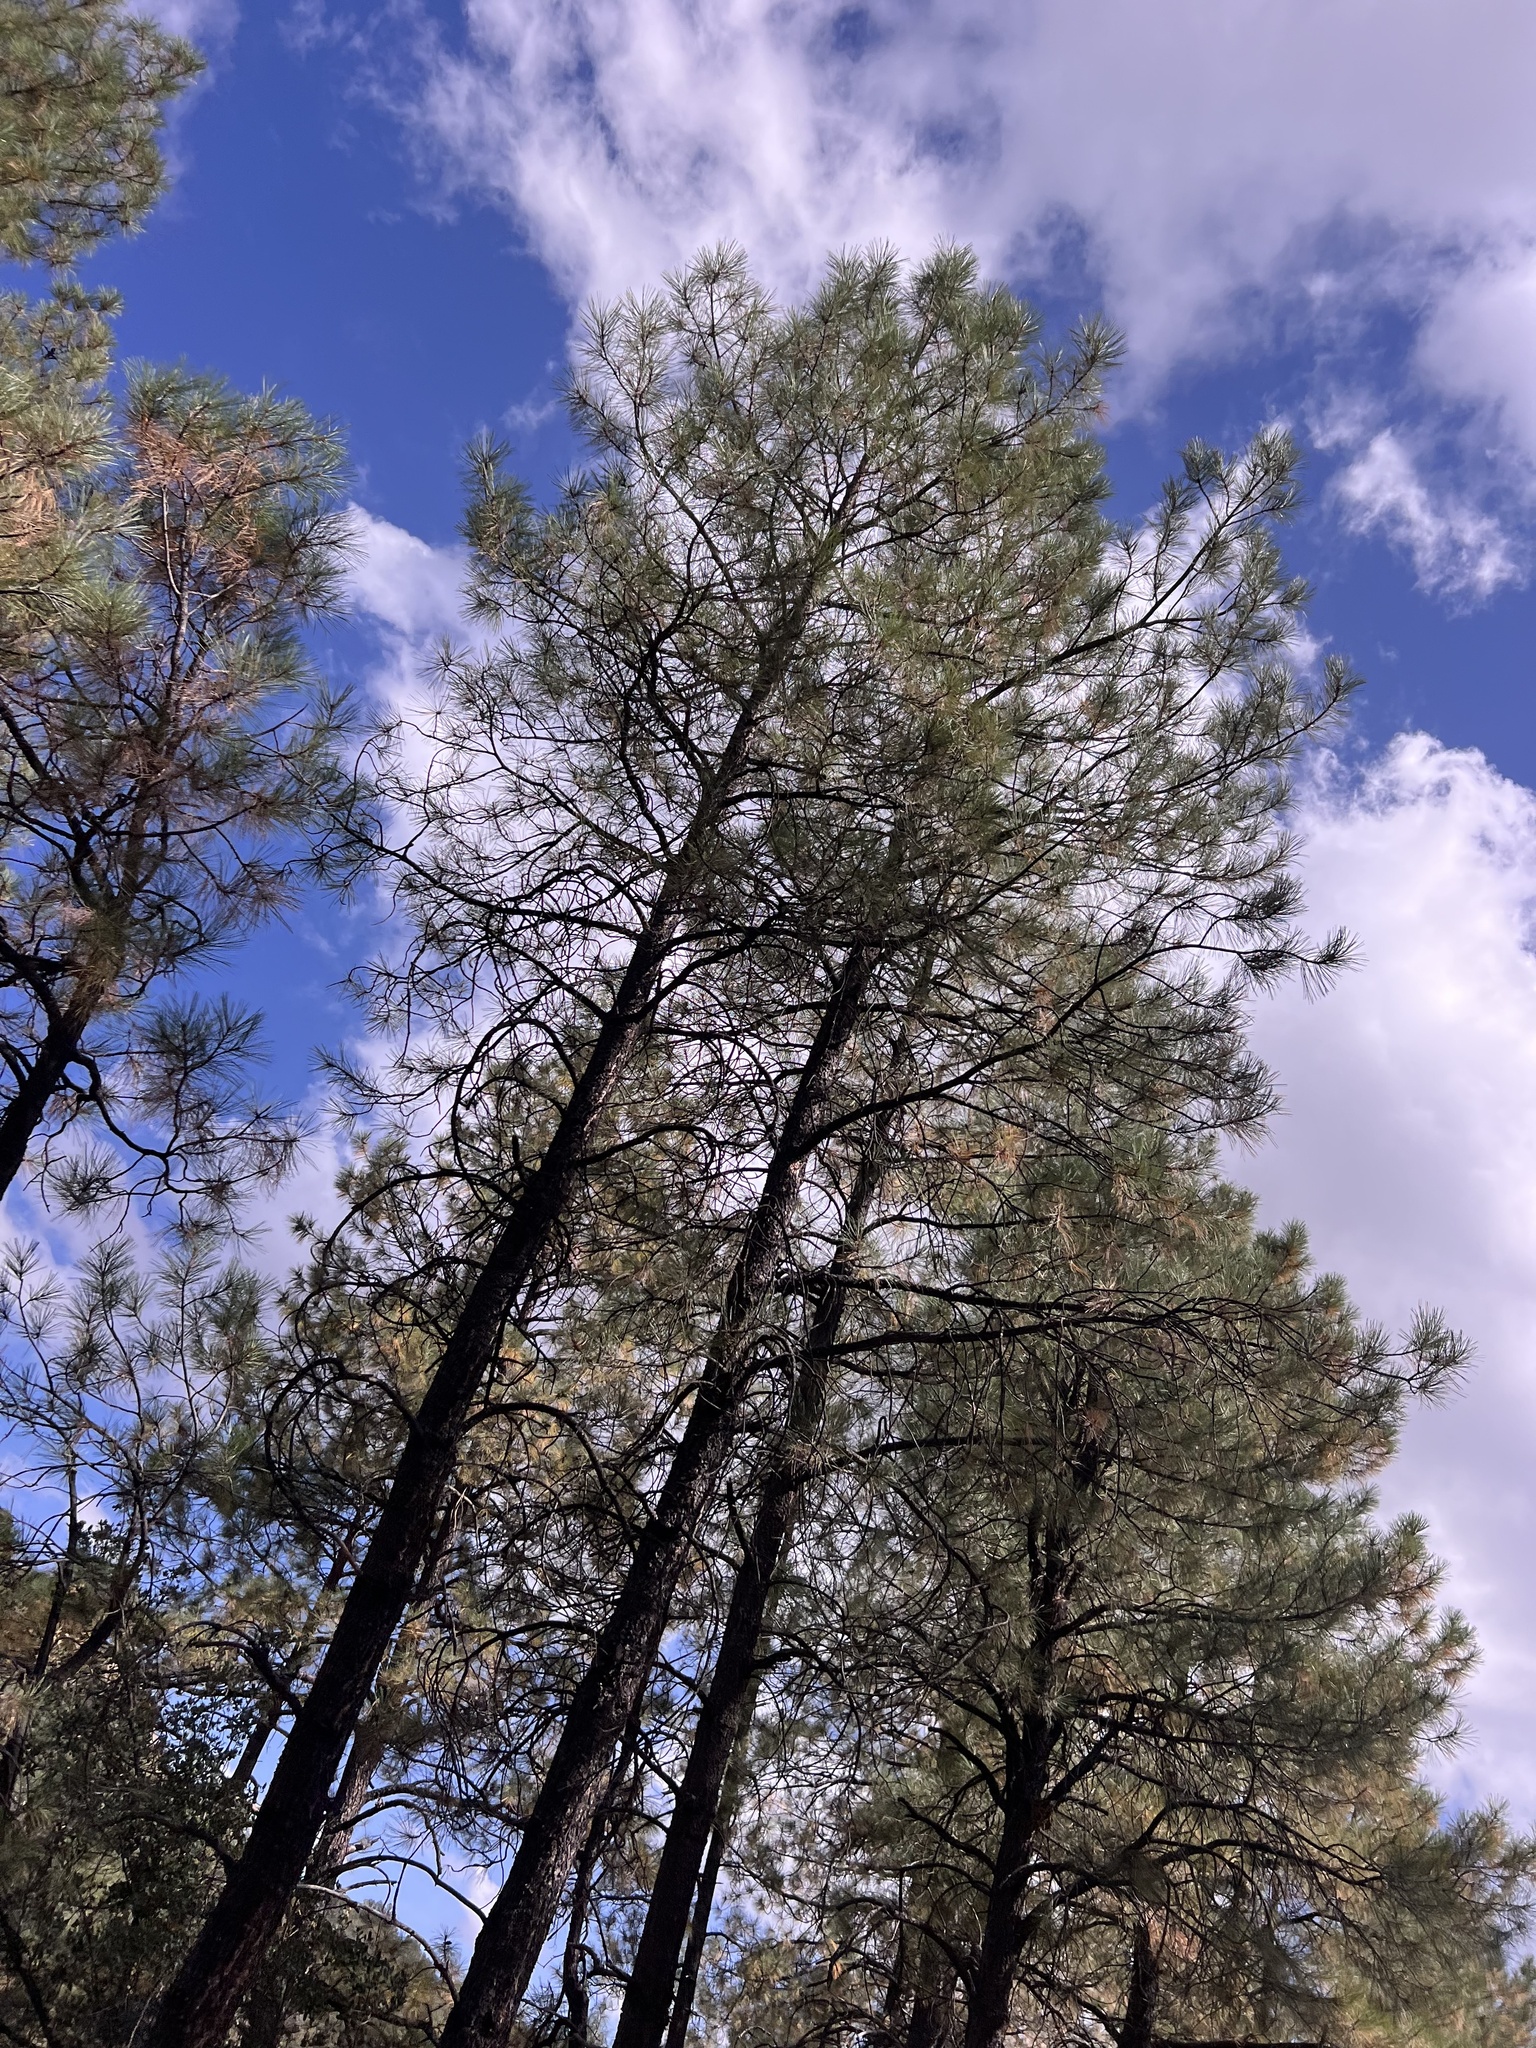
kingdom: Plantae
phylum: Tracheophyta
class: Pinopsida
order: Pinales
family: Pinaceae
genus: Pinus
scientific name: Pinus ponderosa
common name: Western yellow-pine
